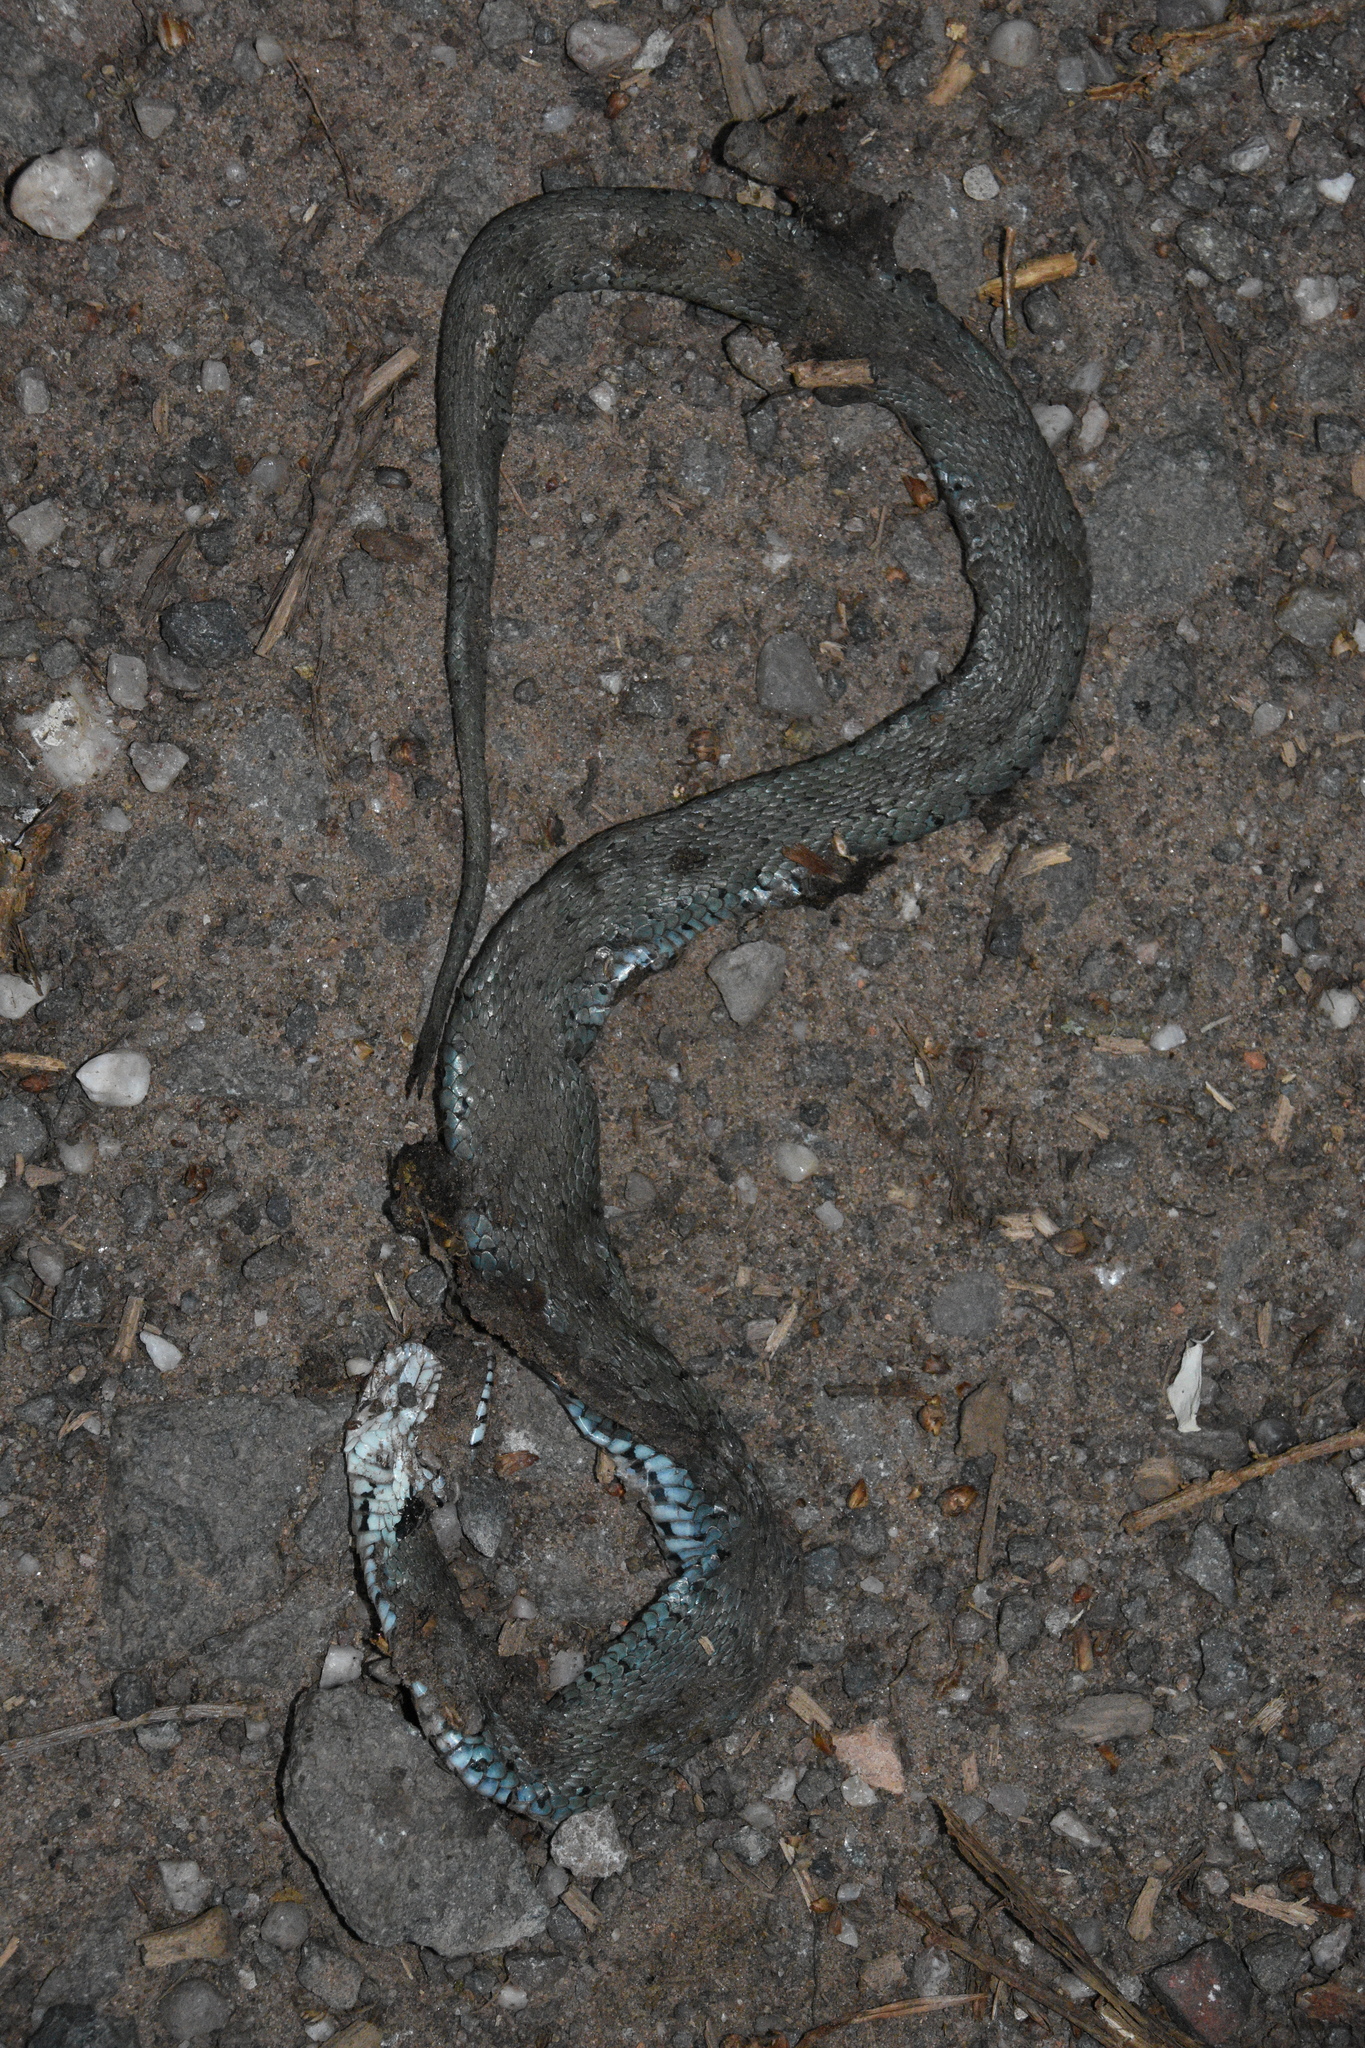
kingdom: Animalia
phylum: Chordata
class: Squamata
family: Colubridae
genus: Natrix
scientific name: Natrix helvetica
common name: Banded grass snake
